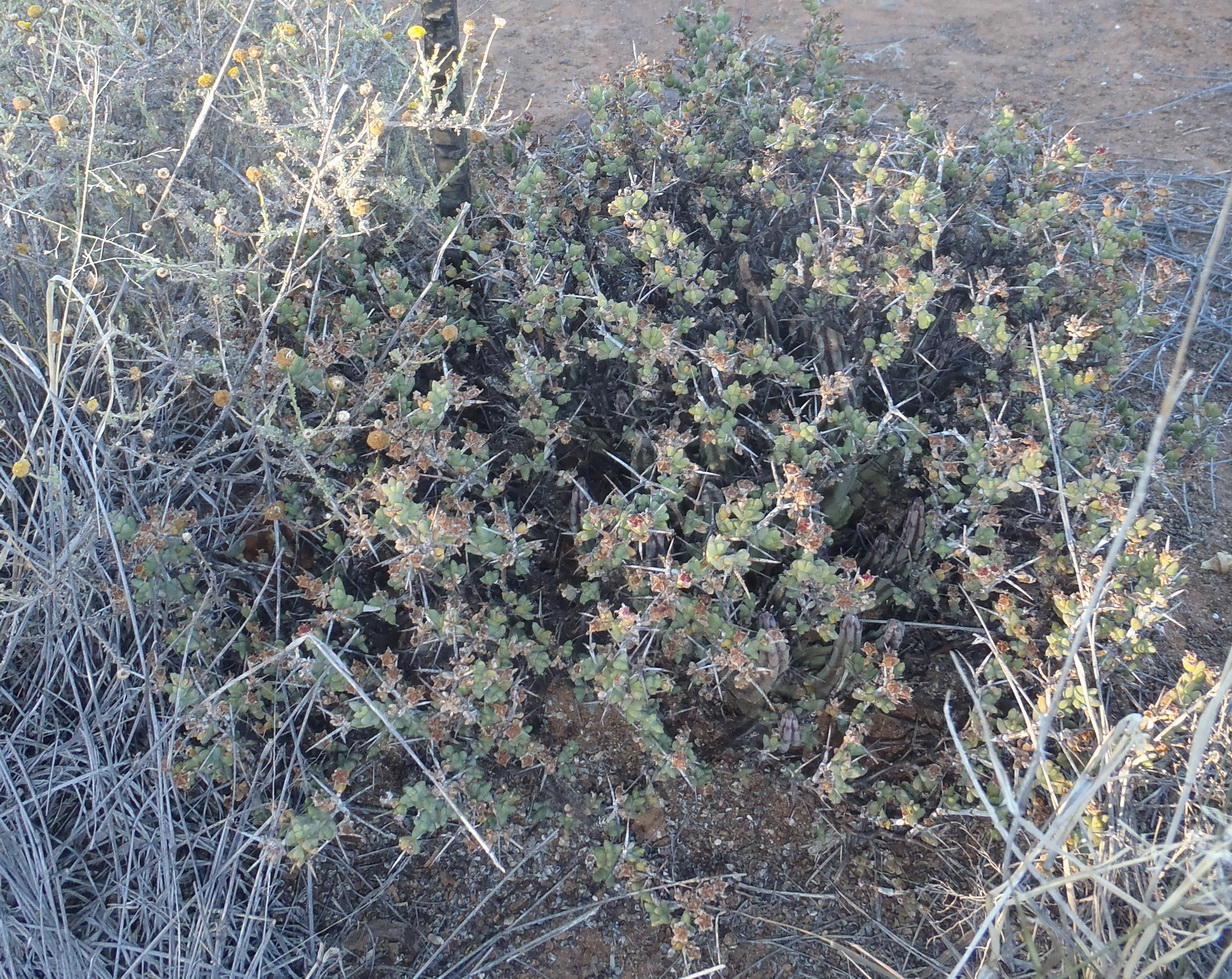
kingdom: Plantae
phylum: Tracheophyta
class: Magnoliopsida
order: Caryophyllales
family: Aizoaceae
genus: Ruschia
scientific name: Ruschia cradockensis
